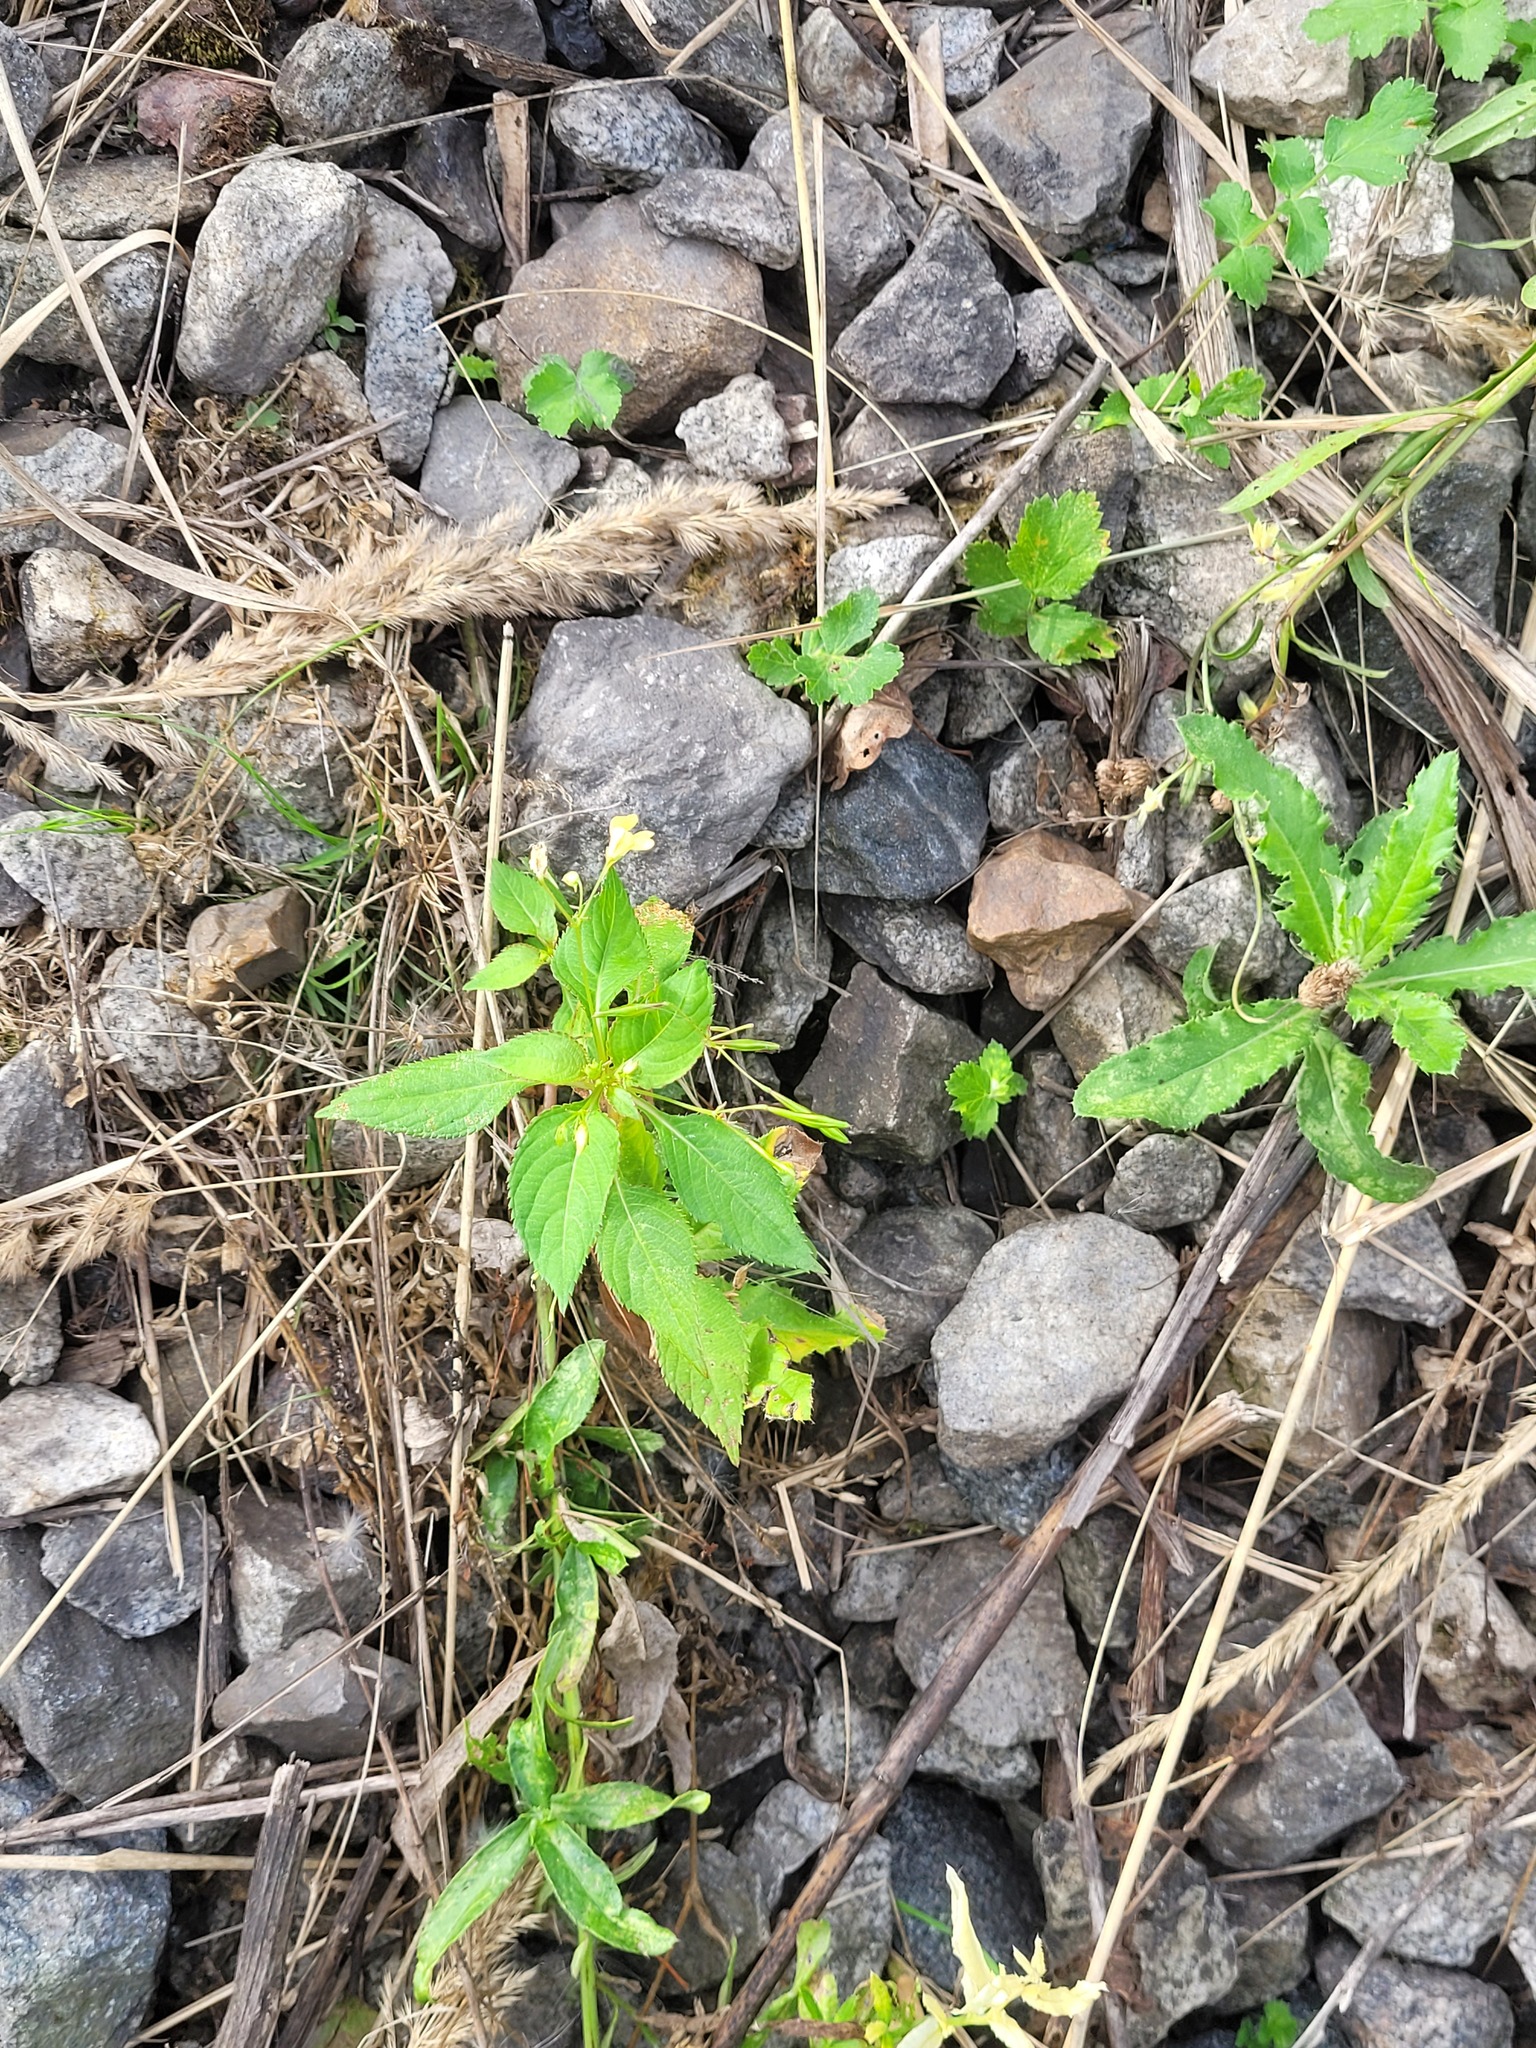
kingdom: Plantae
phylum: Tracheophyta
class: Magnoliopsida
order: Ericales
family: Balsaminaceae
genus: Impatiens
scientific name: Impatiens parviflora
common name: Small balsam
